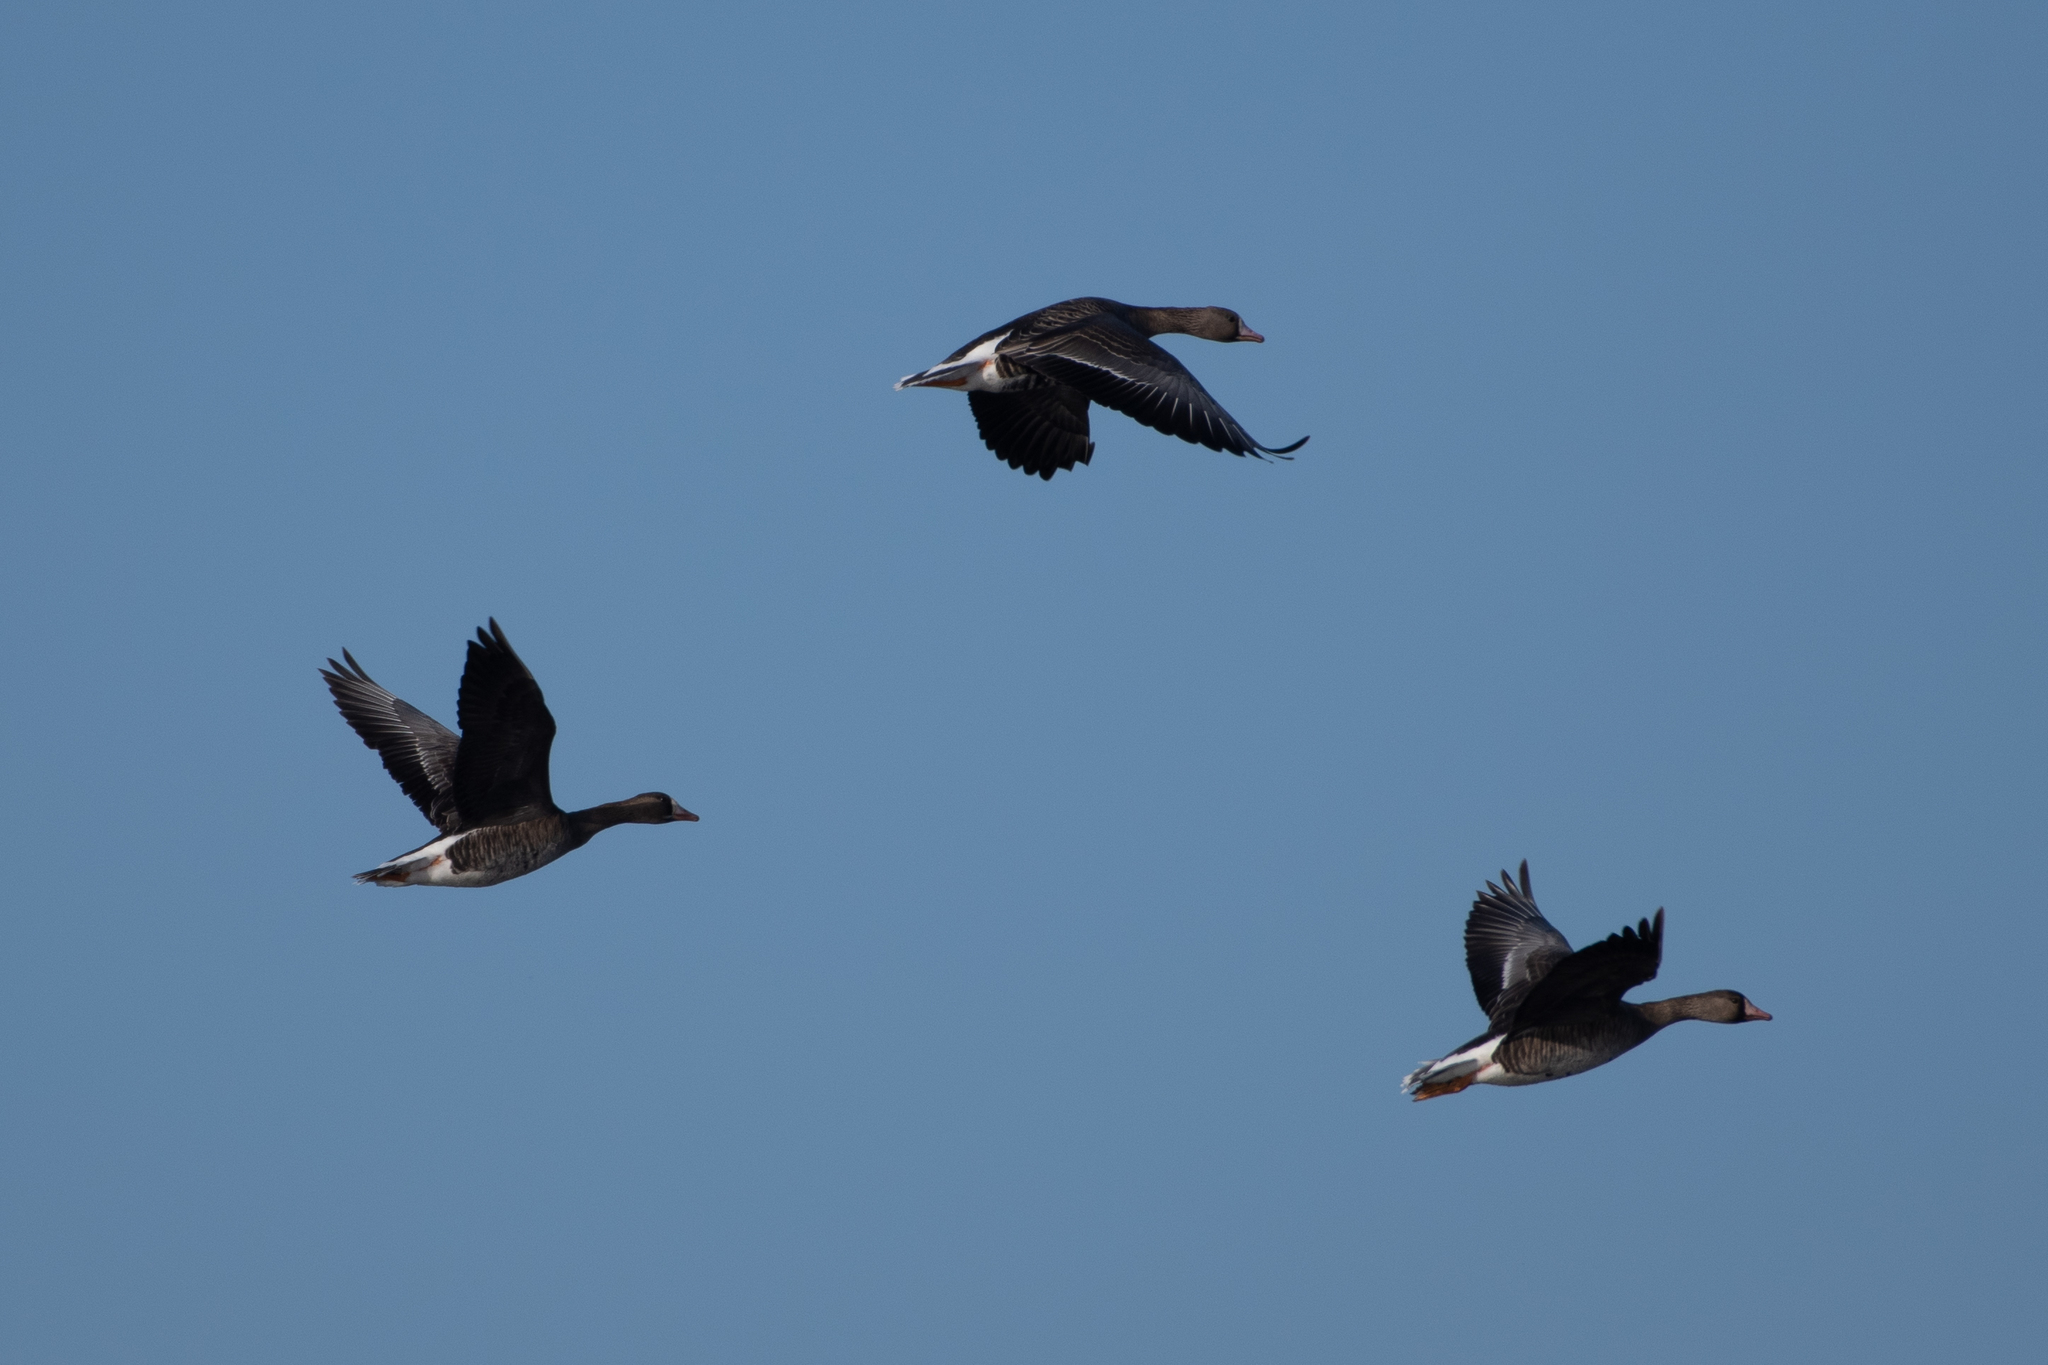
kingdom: Animalia
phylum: Chordata
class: Aves
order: Anseriformes
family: Anatidae
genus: Anser
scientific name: Anser albifrons
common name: Greater white-fronted goose
